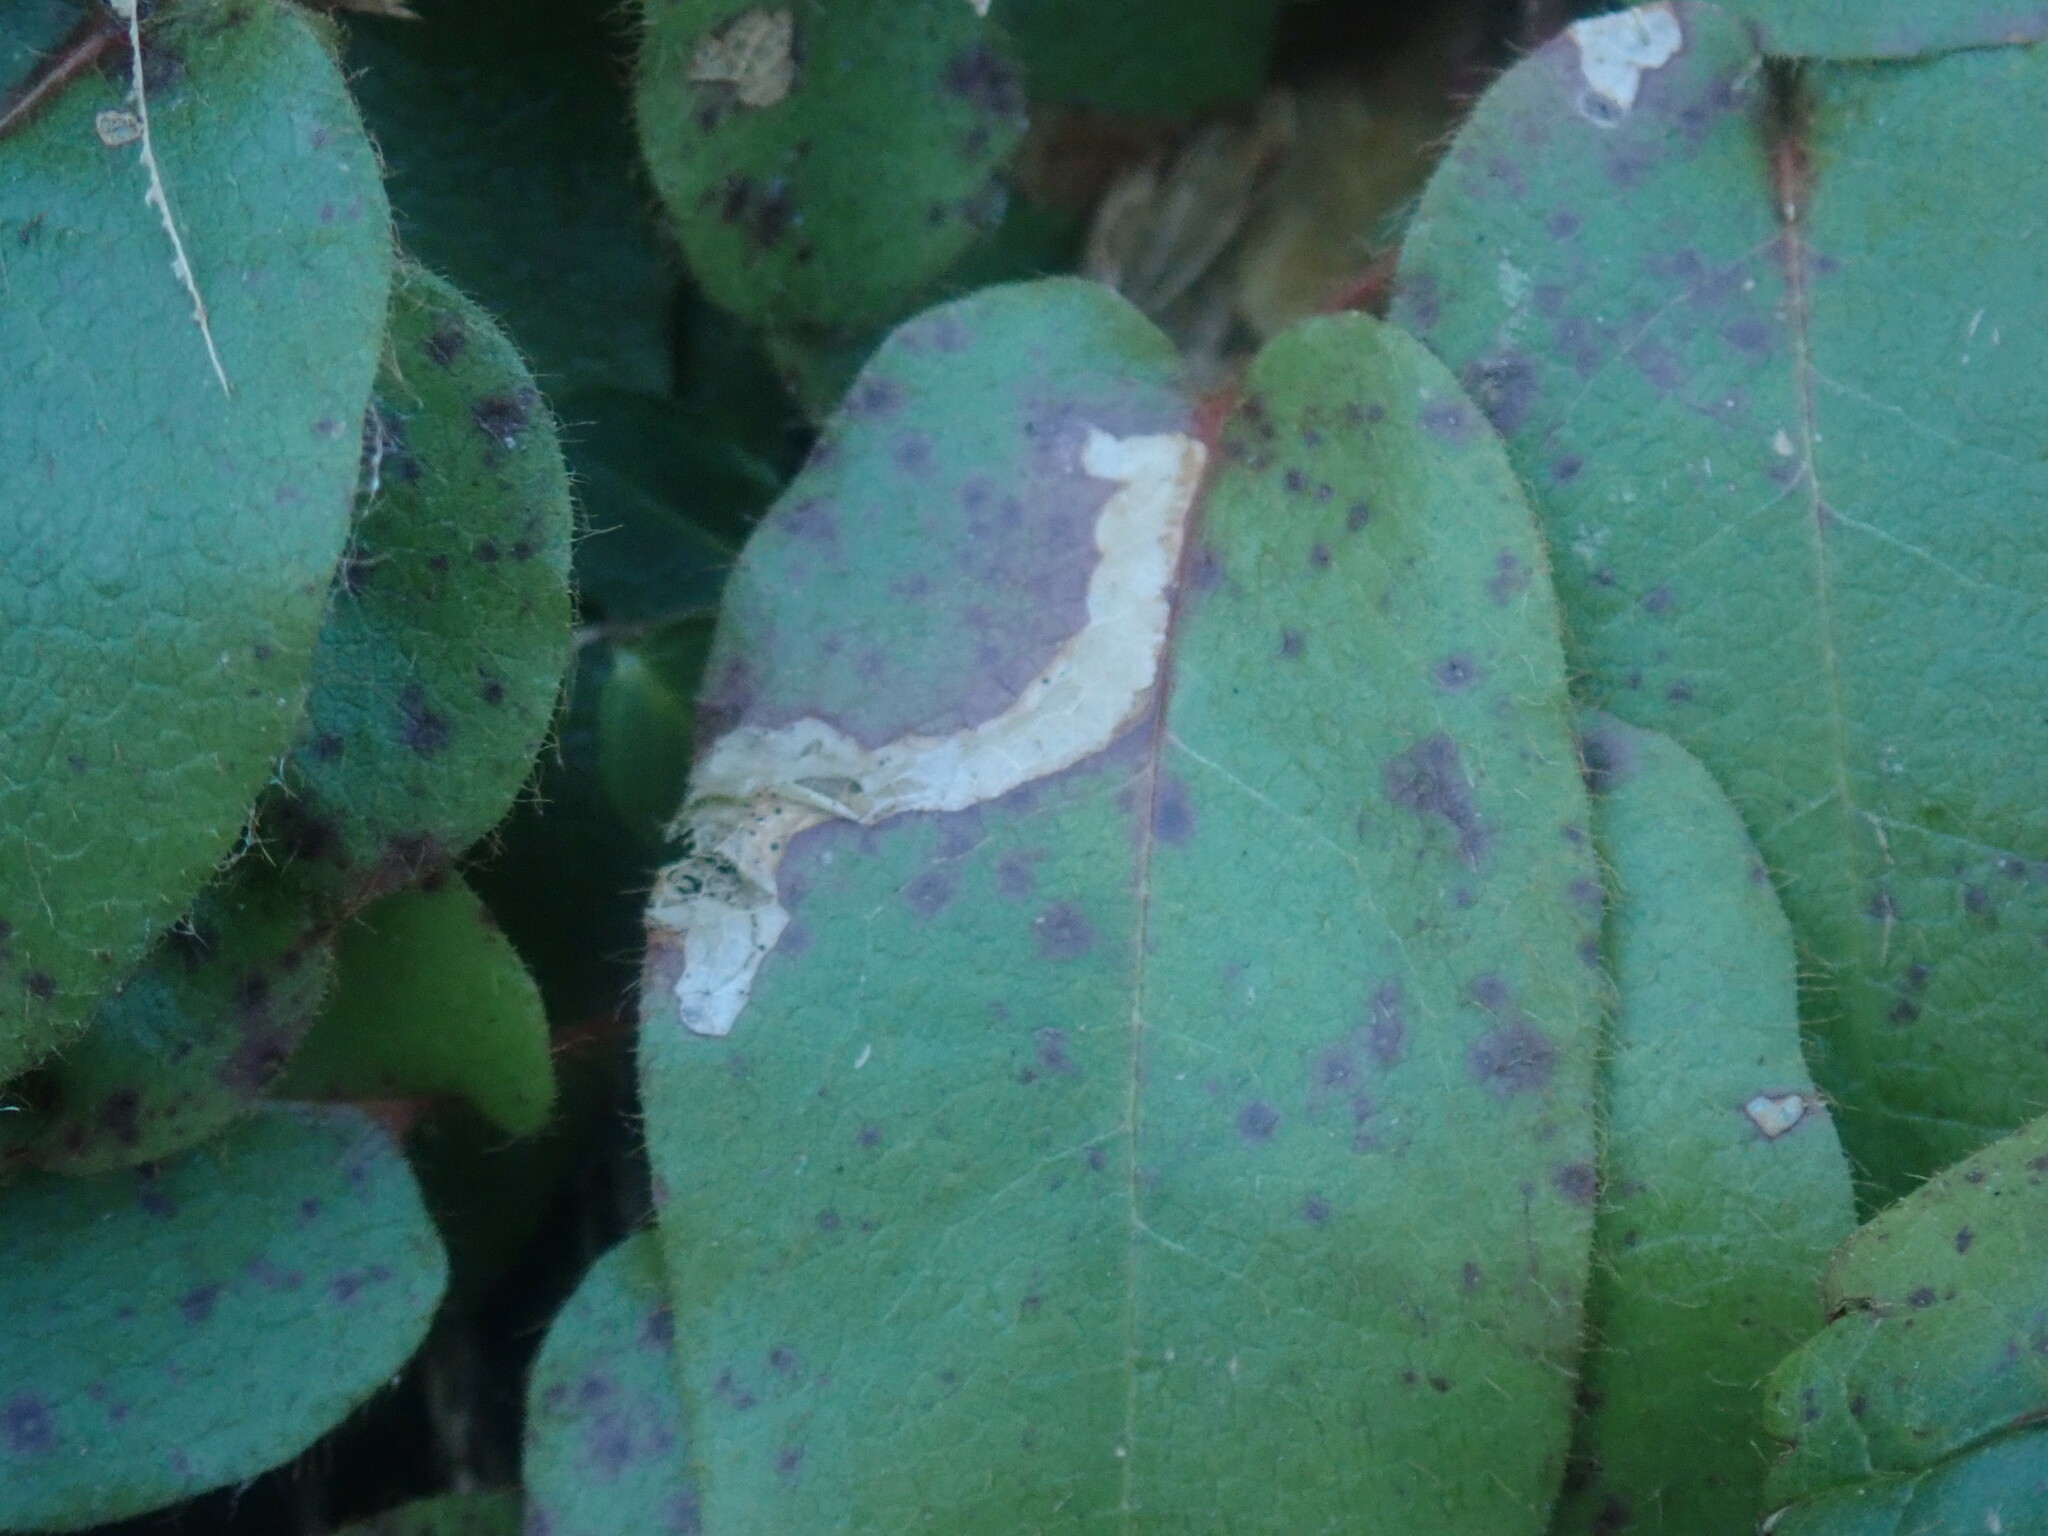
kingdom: Animalia
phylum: Arthropoda
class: Insecta
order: Coleoptera
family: Buprestidae
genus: Brachys
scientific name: Brachys
